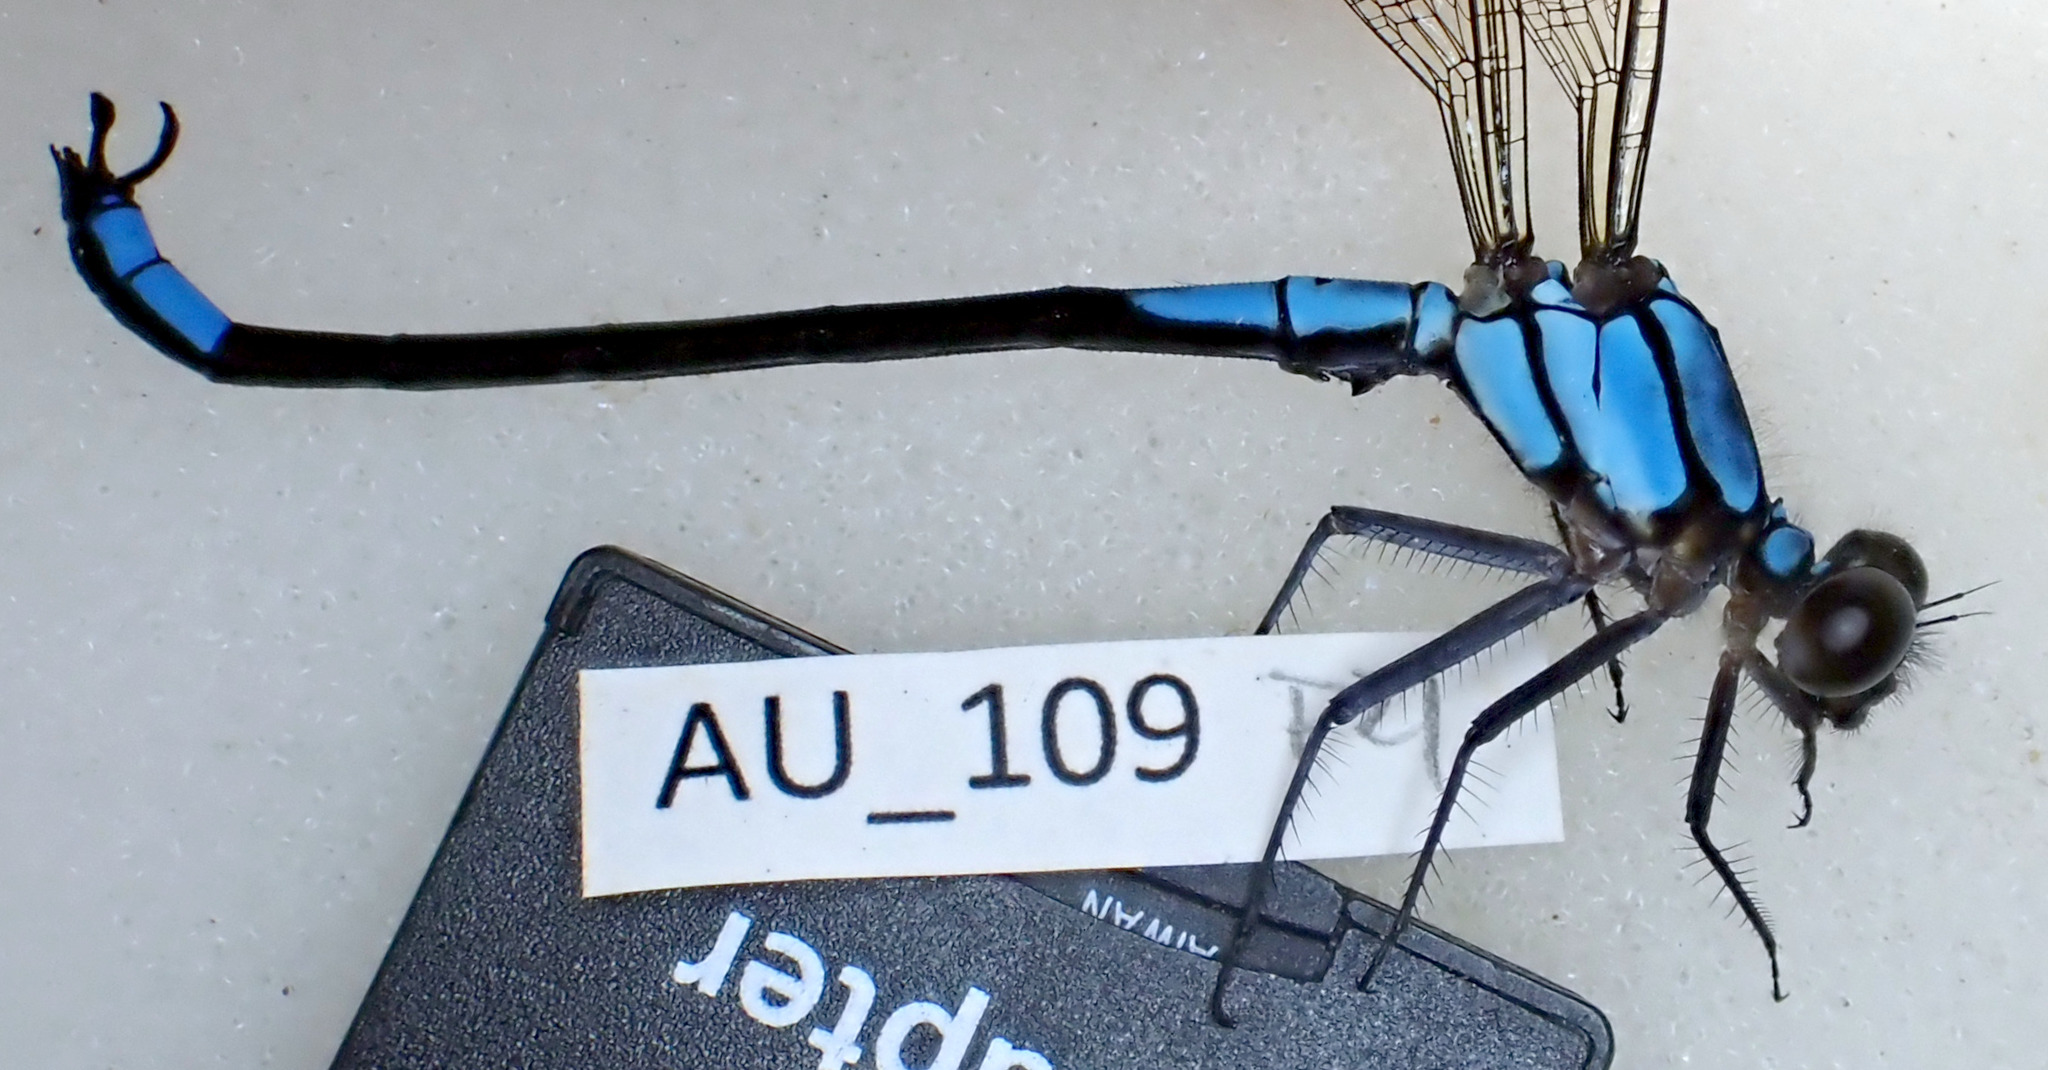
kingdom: Animalia
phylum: Arthropoda
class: Insecta
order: Odonata
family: Lestoideidae
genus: Diphlebia
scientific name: Diphlebia euphoeoides
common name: Tropical rockmaster
